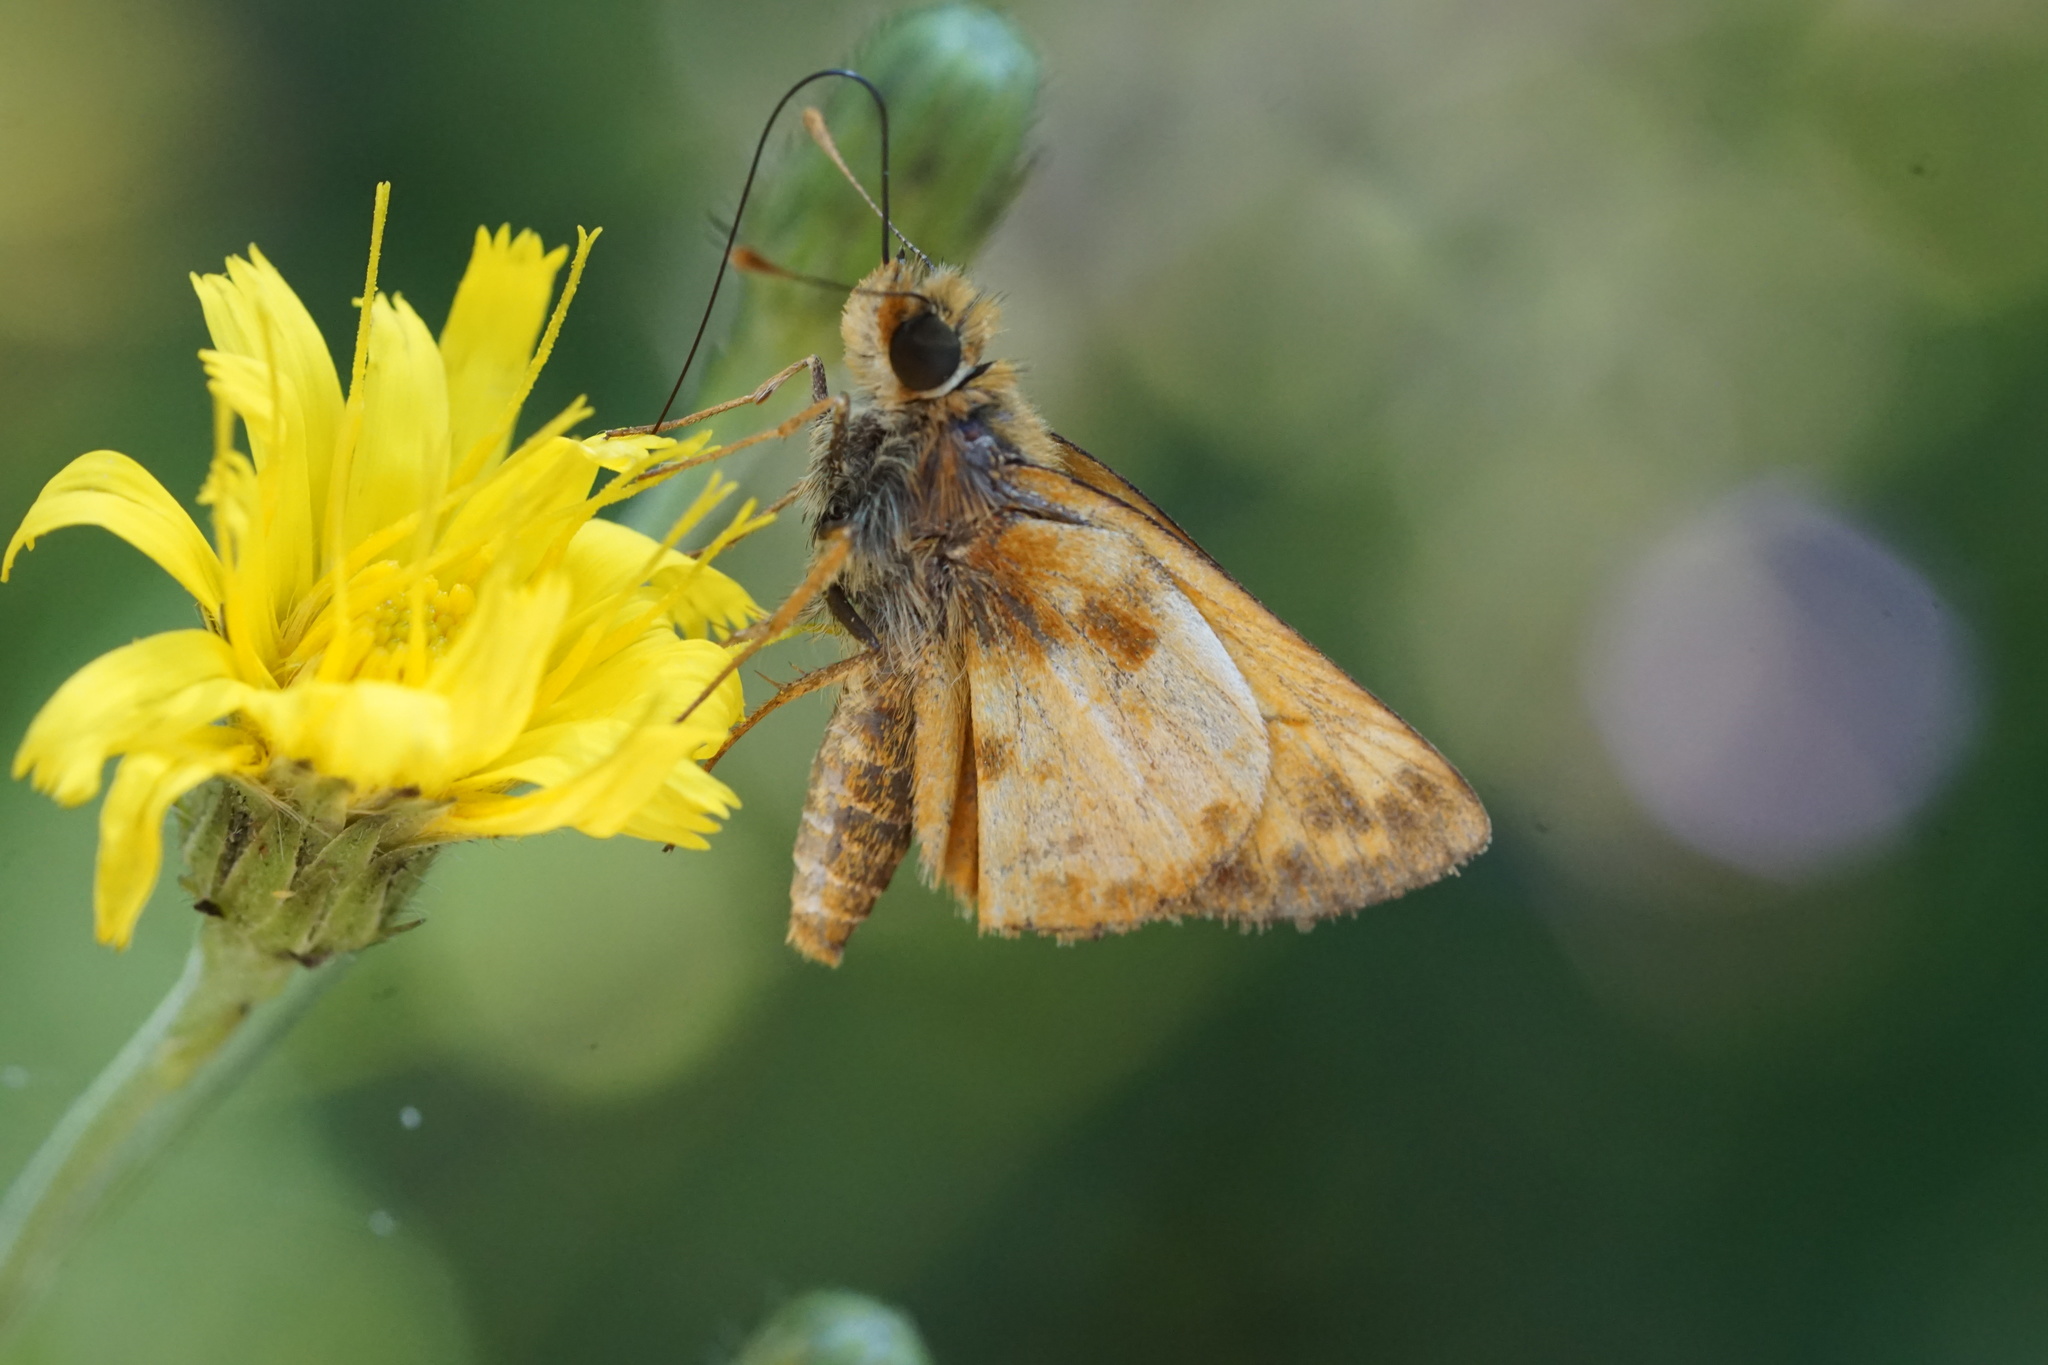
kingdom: Animalia
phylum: Arthropoda
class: Insecta
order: Lepidoptera
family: Hesperiidae
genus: Lon
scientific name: Lon zabulon
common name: Zabulon skipper
